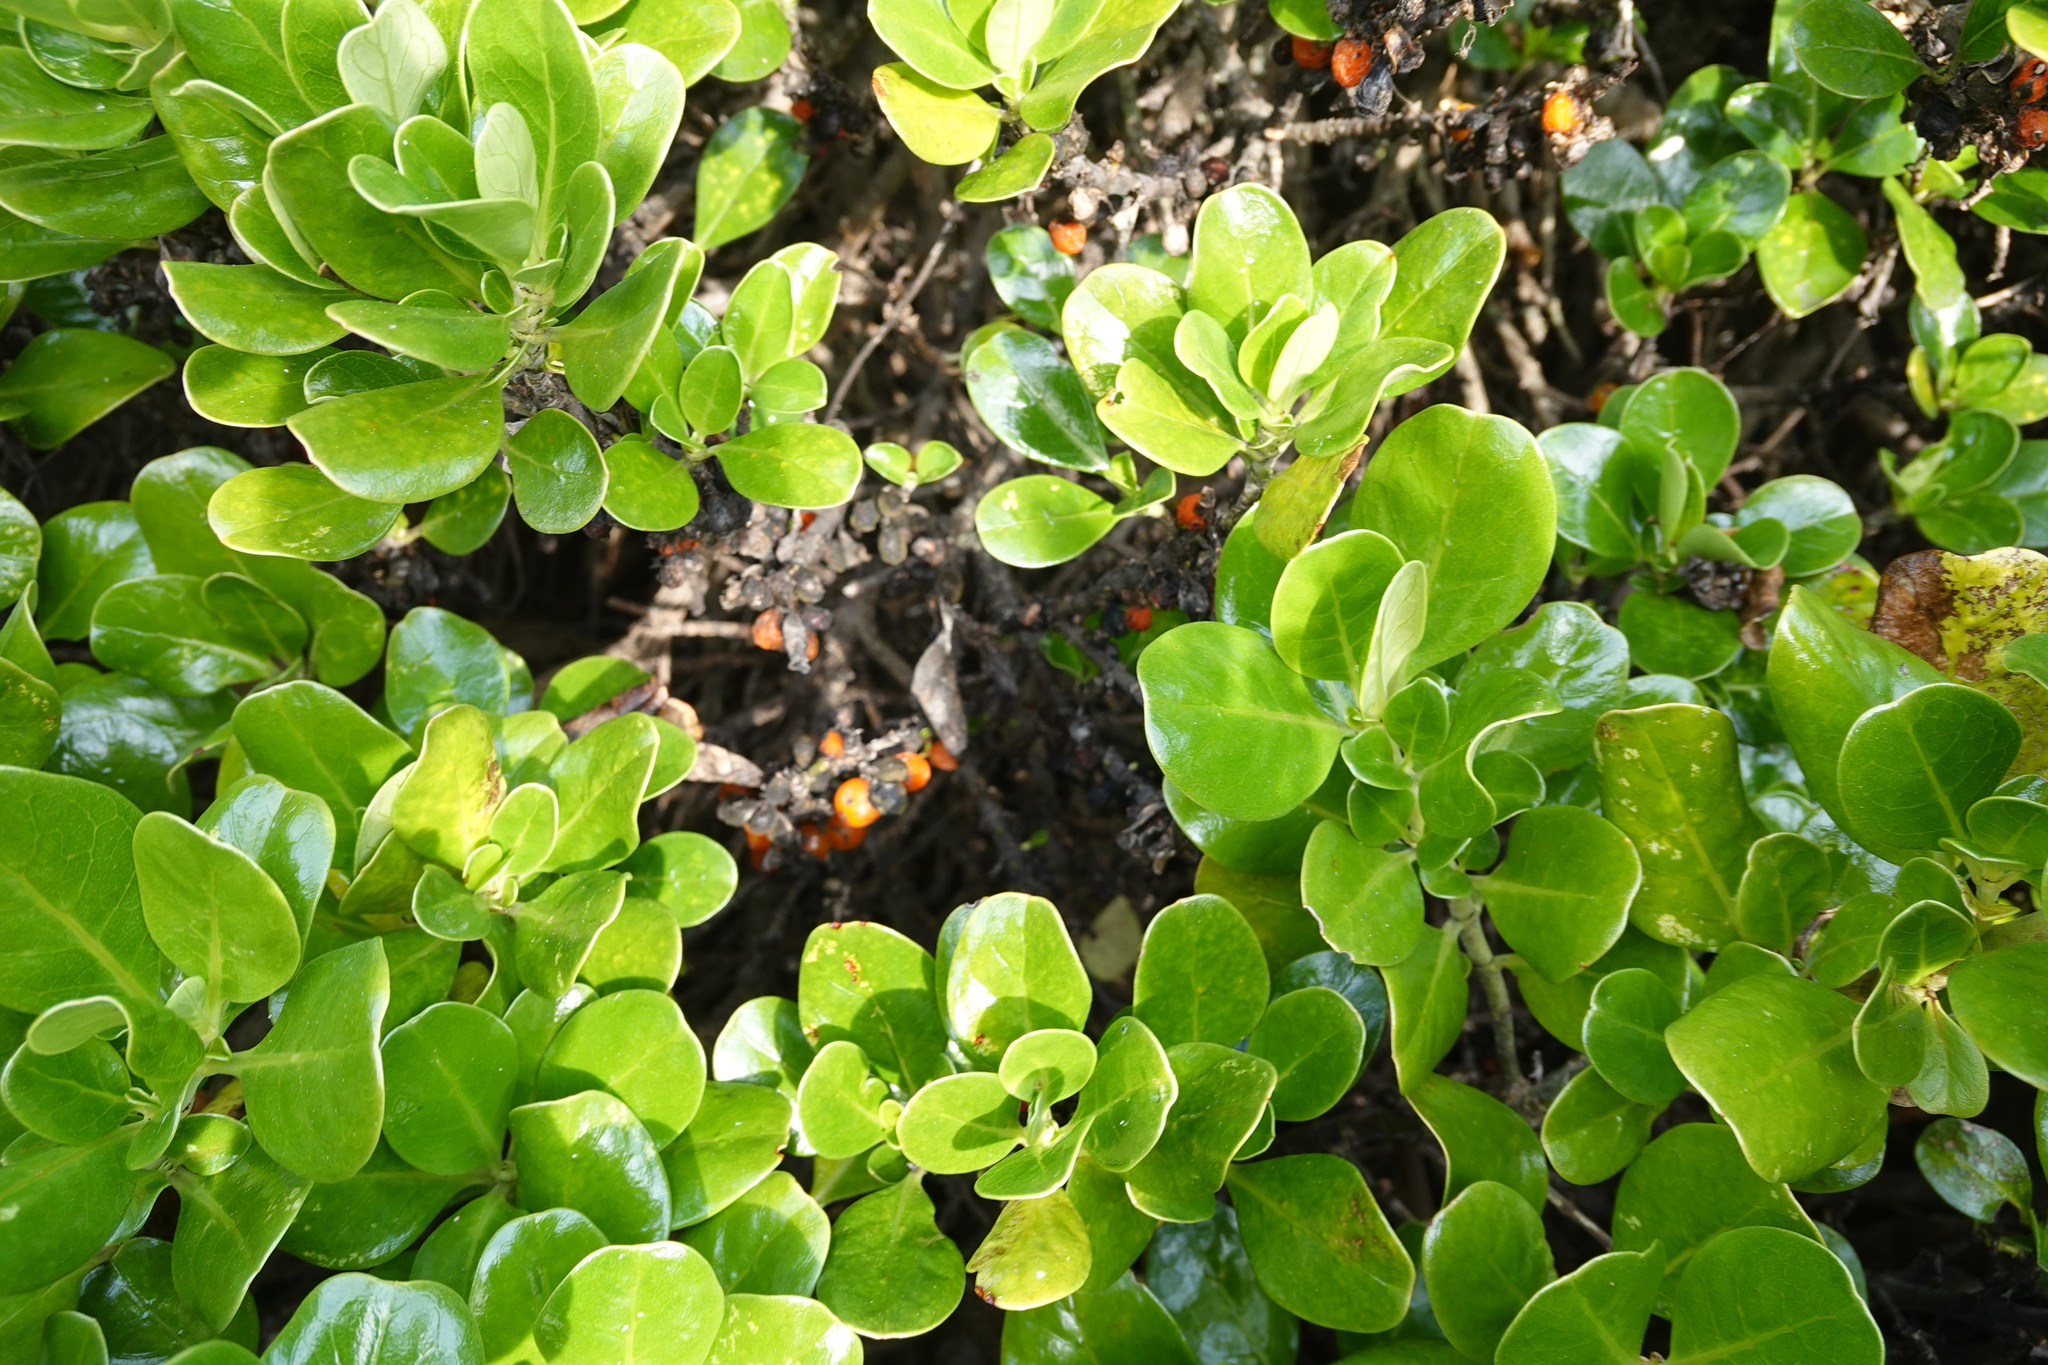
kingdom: Plantae
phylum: Tracheophyta
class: Magnoliopsida
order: Gentianales
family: Rubiaceae
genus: Coprosma
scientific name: Coprosma repens
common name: Tree bedstraw
